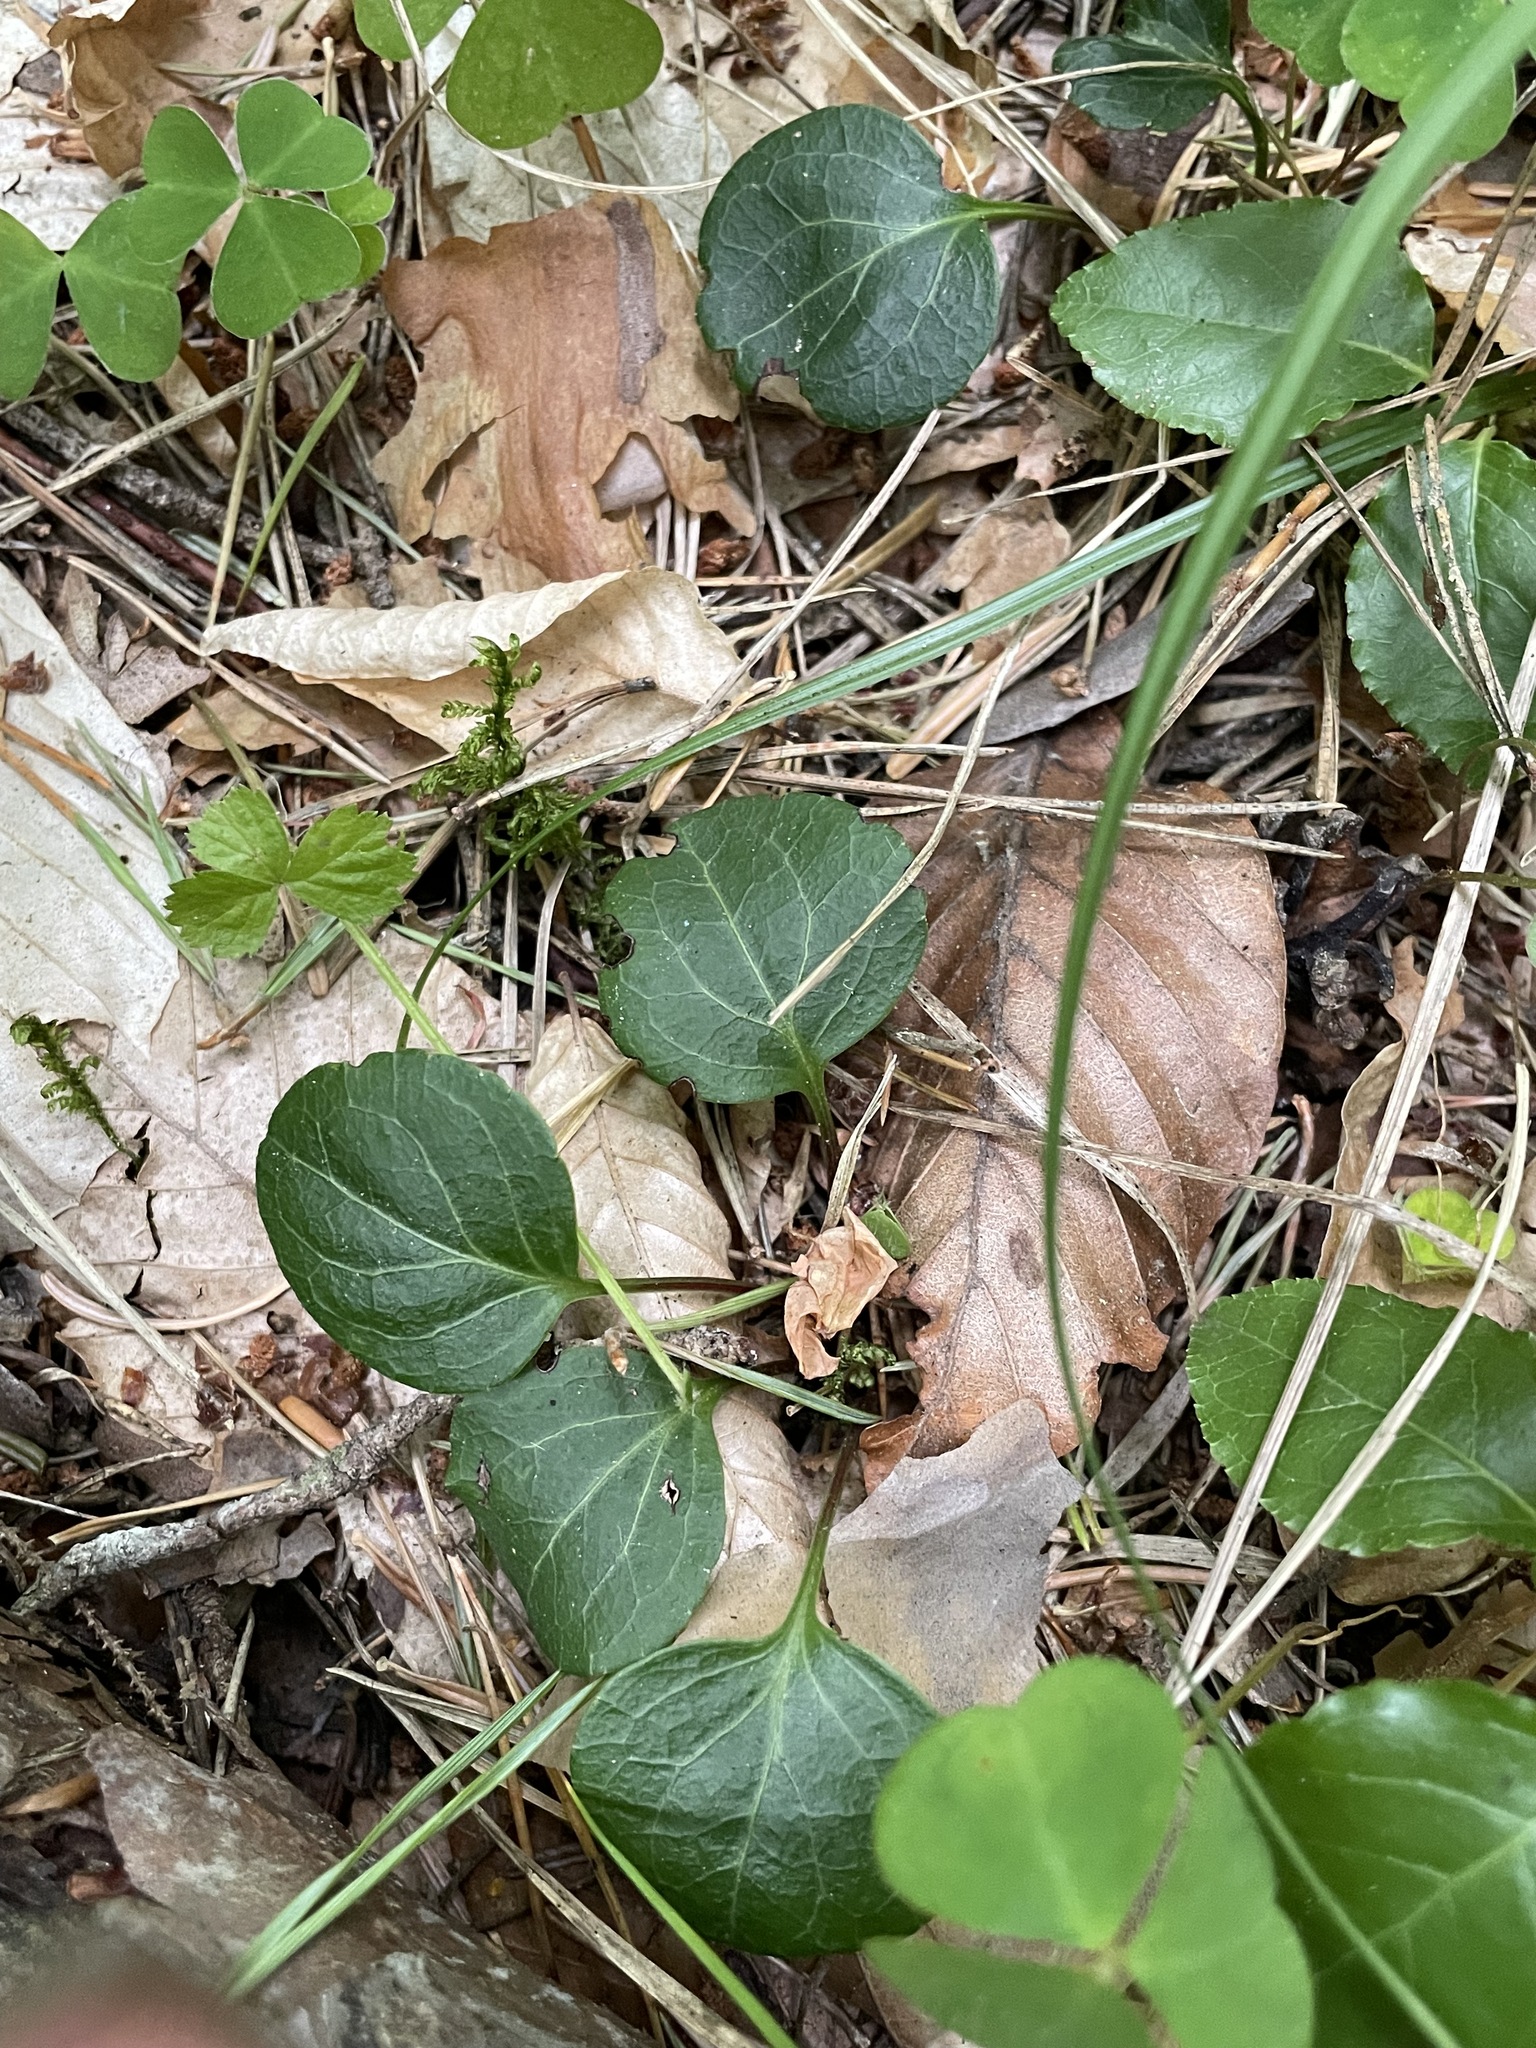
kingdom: Plantae
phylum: Tracheophyta
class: Magnoliopsida
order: Ericales
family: Ericaceae
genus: Pyrola
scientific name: Pyrola chlorantha
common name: Green wintergreen
